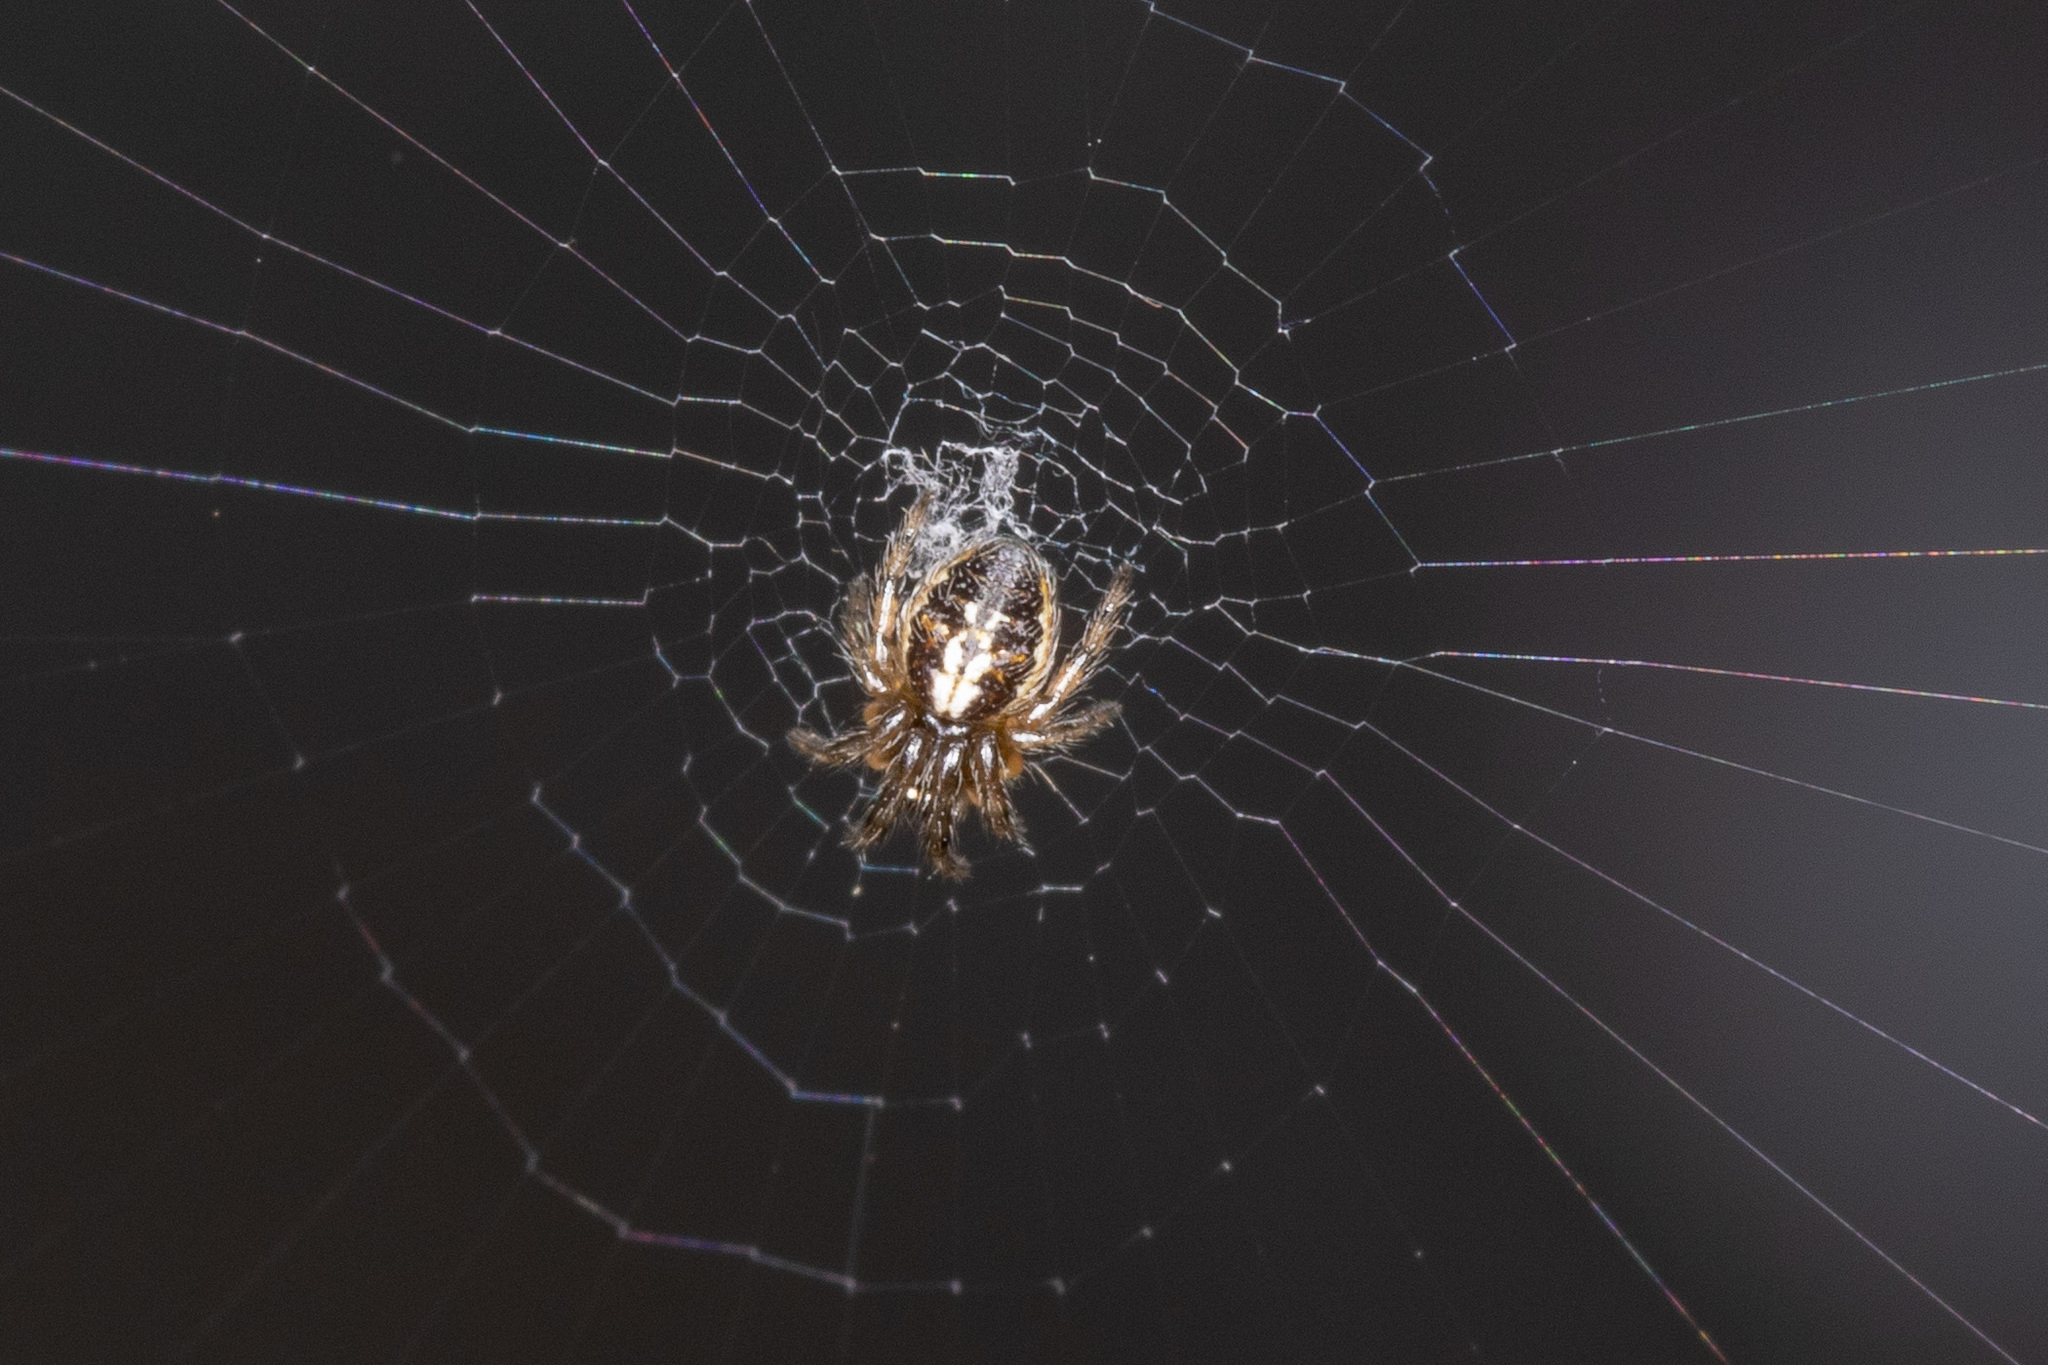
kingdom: Animalia
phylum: Arthropoda
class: Arachnida
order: Araneae
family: Araneidae
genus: Zygiella
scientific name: Zygiella x-notata
